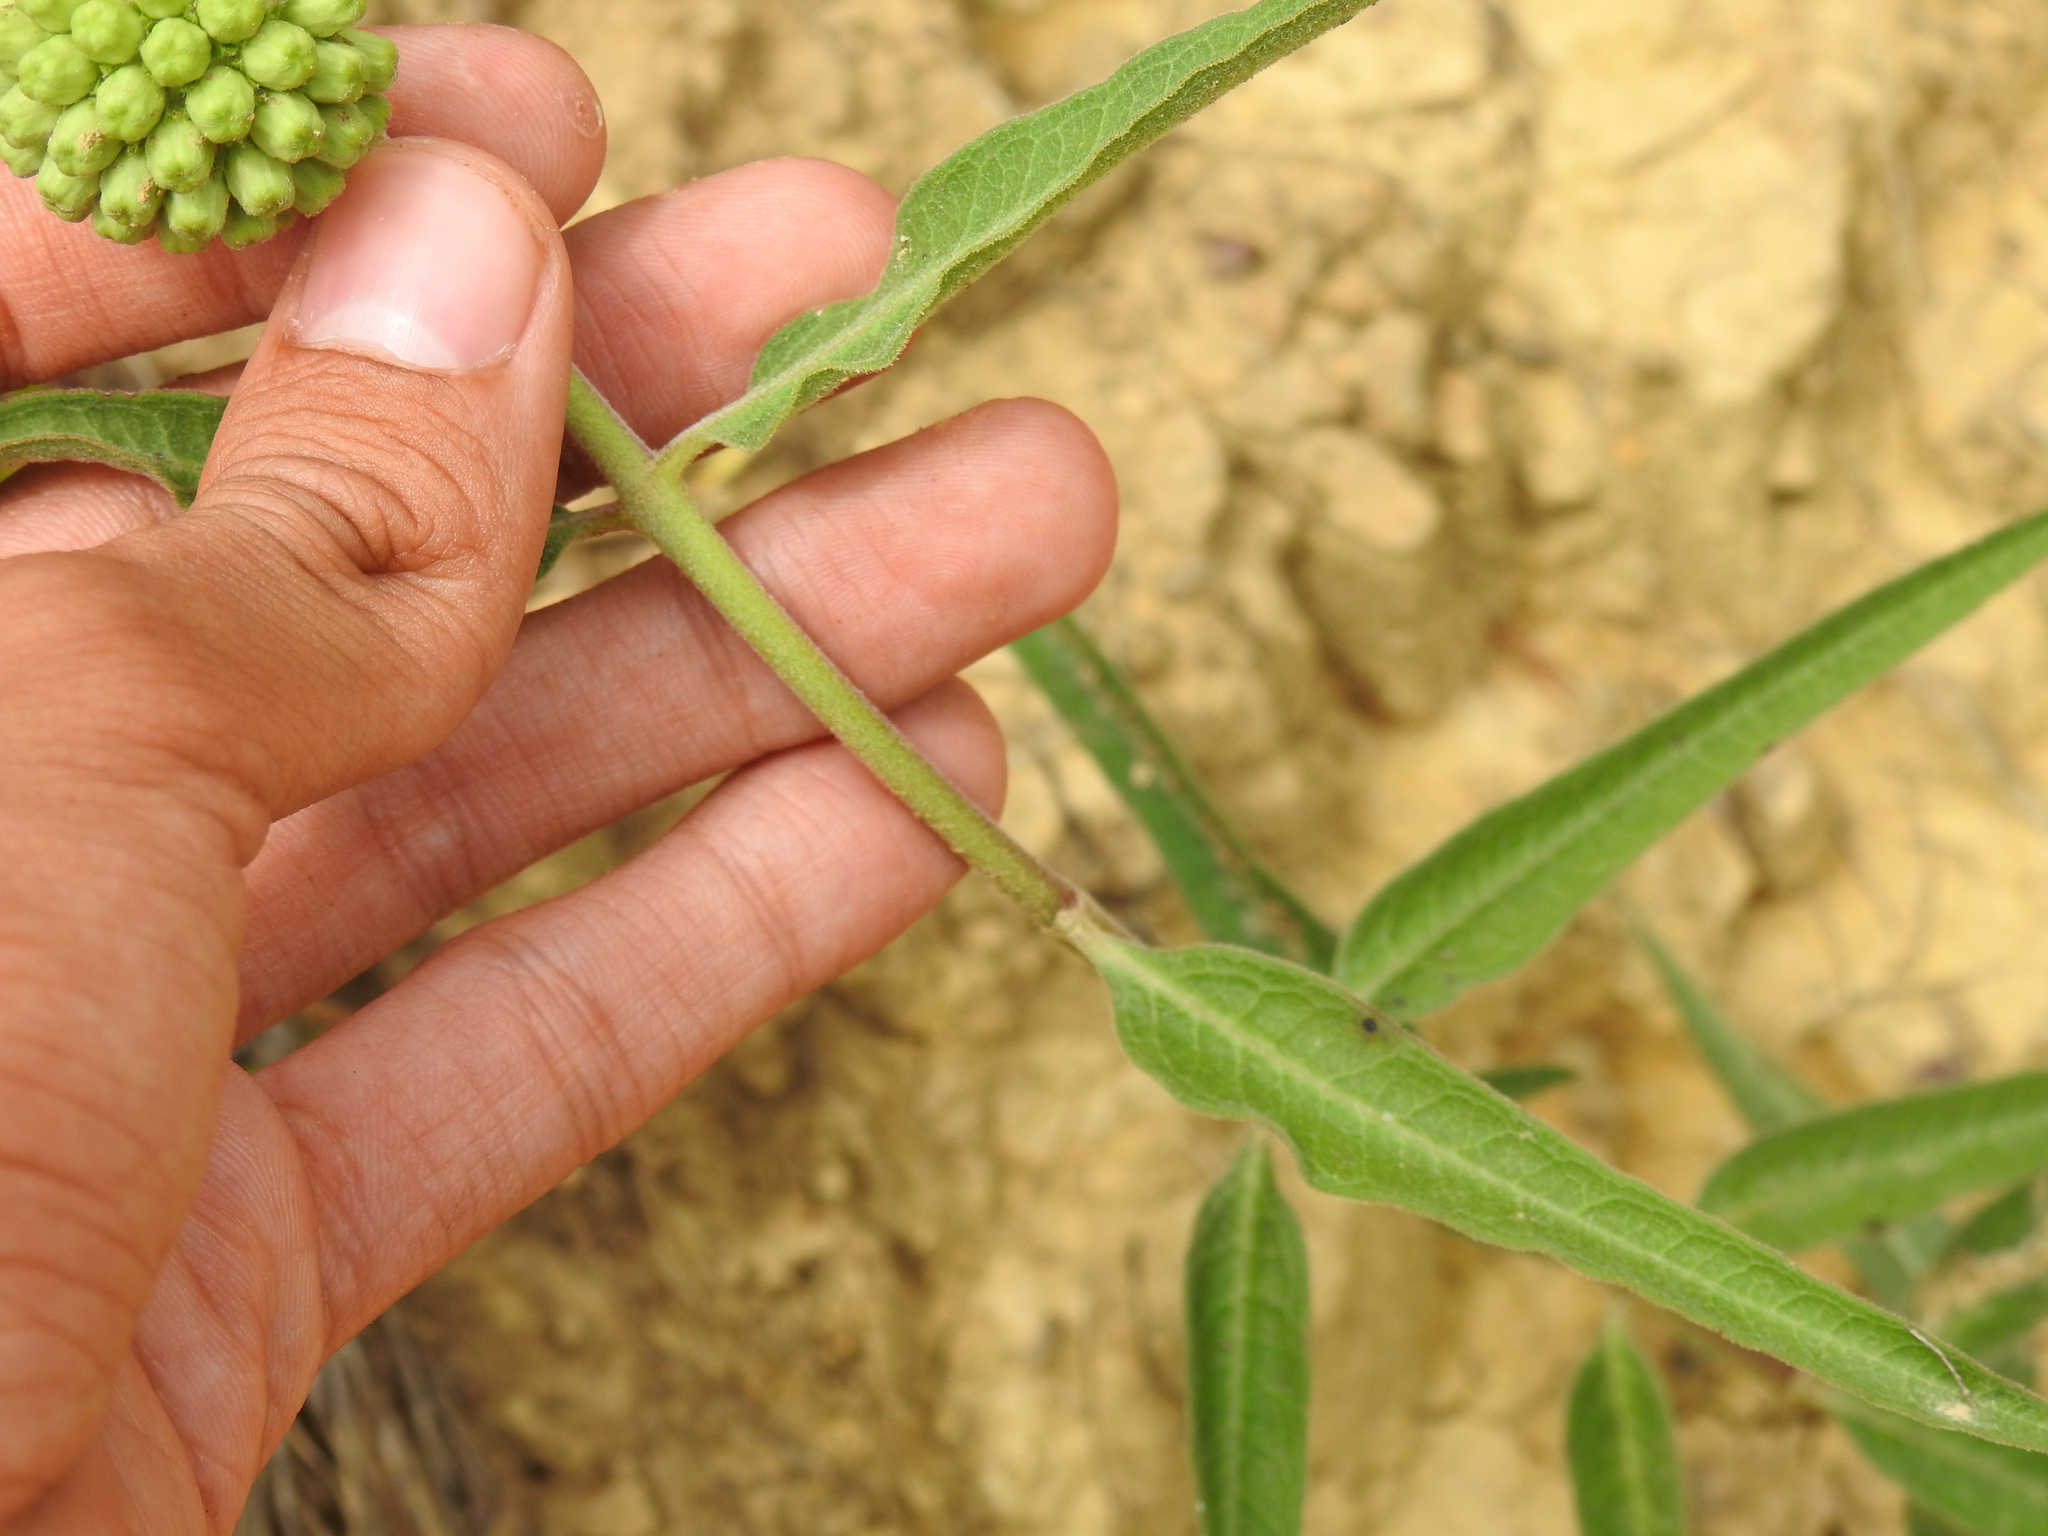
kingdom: Plantae
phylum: Tracheophyta
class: Magnoliopsida
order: Gentianales
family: Apocynaceae
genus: Asclepias
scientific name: Asclepias viridiflora
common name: Green comet milkweed
